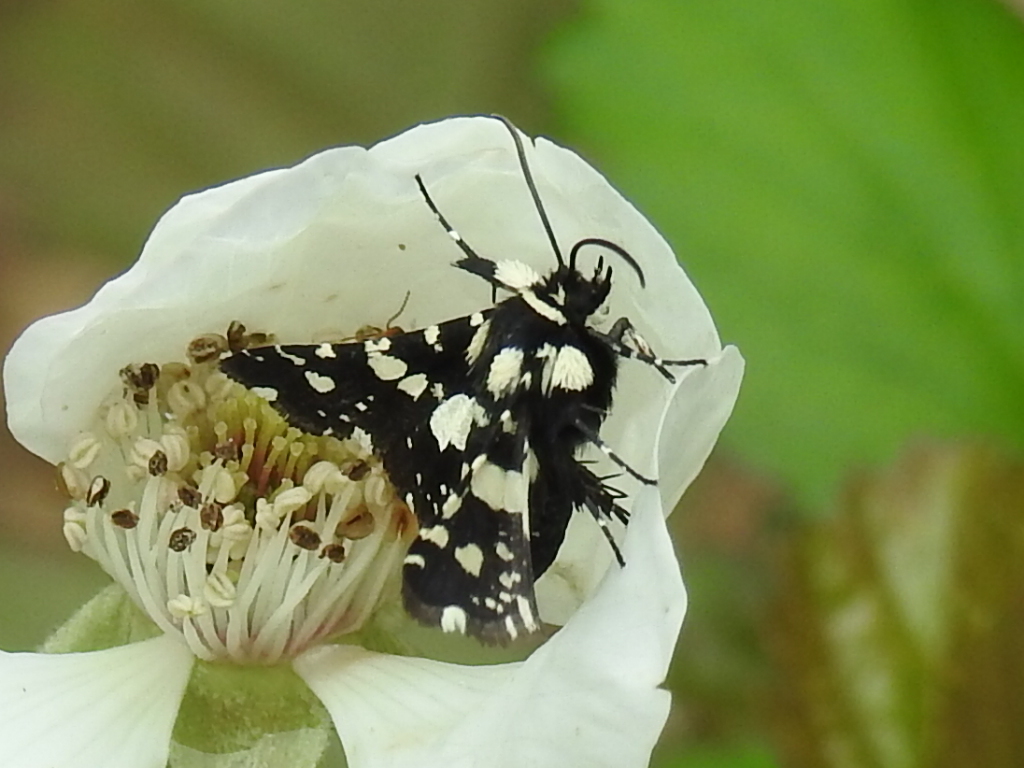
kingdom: Animalia
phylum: Arthropoda
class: Insecta
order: Lepidoptera
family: Thyrididae
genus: Pseudothyris
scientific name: Pseudothyris sepulchralis
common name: Mournful thyris moth
